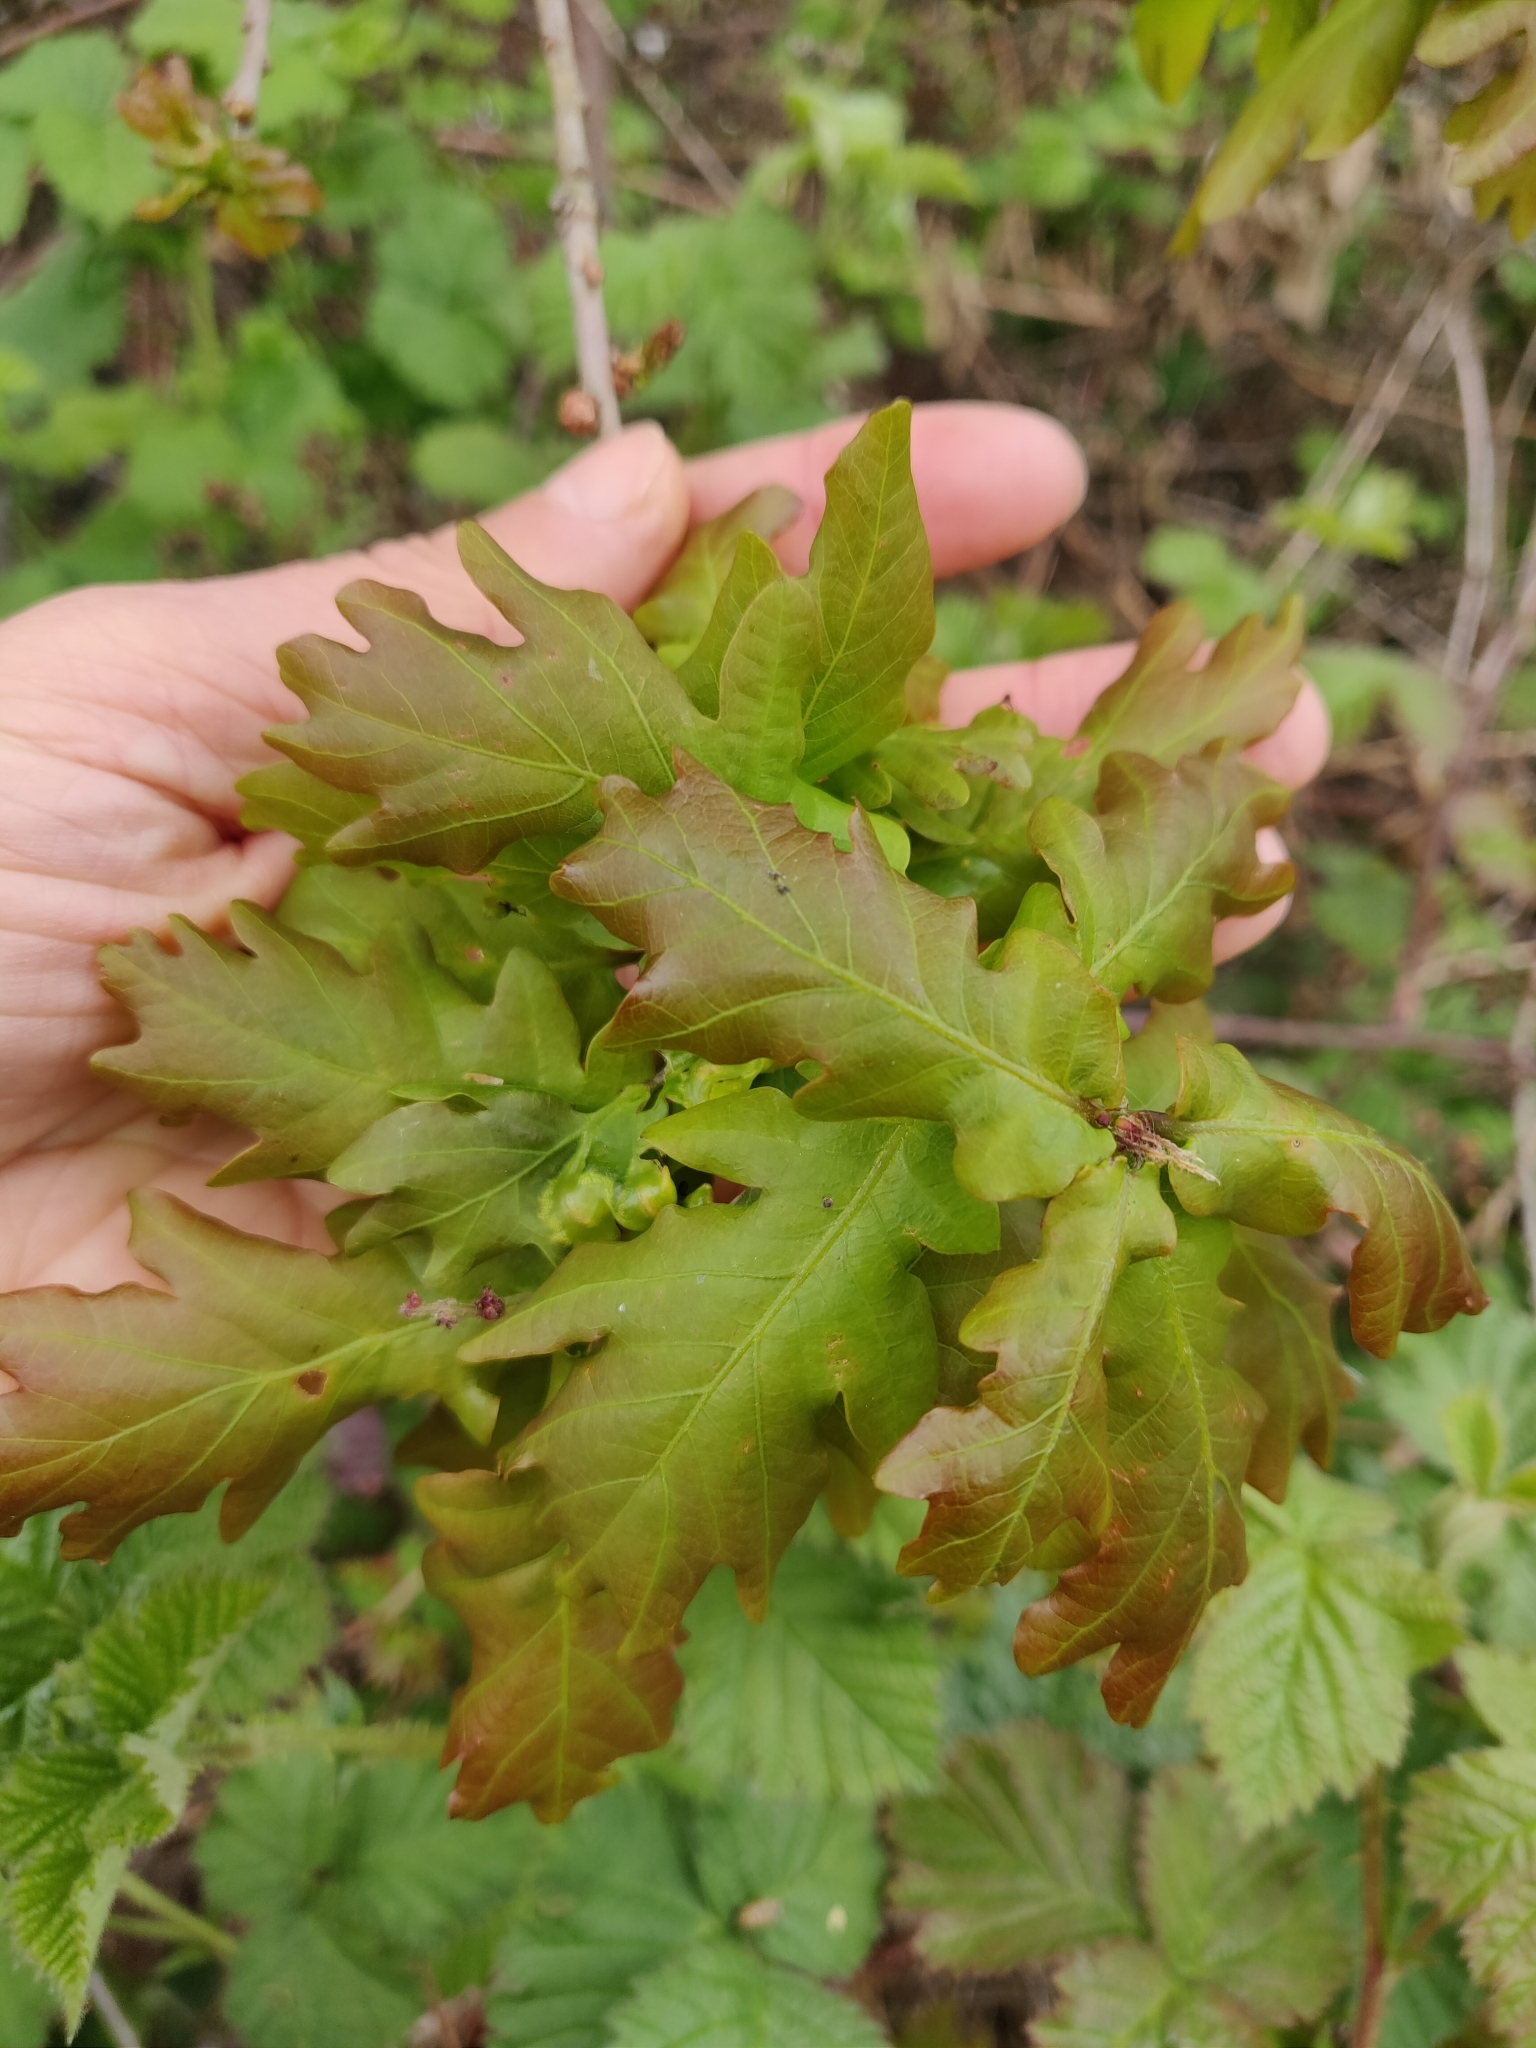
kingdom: Plantae
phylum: Tracheophyta
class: Magnoliopsida
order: Fagales
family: Fagaceae
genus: Quercus
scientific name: Quercus robur
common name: Pedunculate oak
